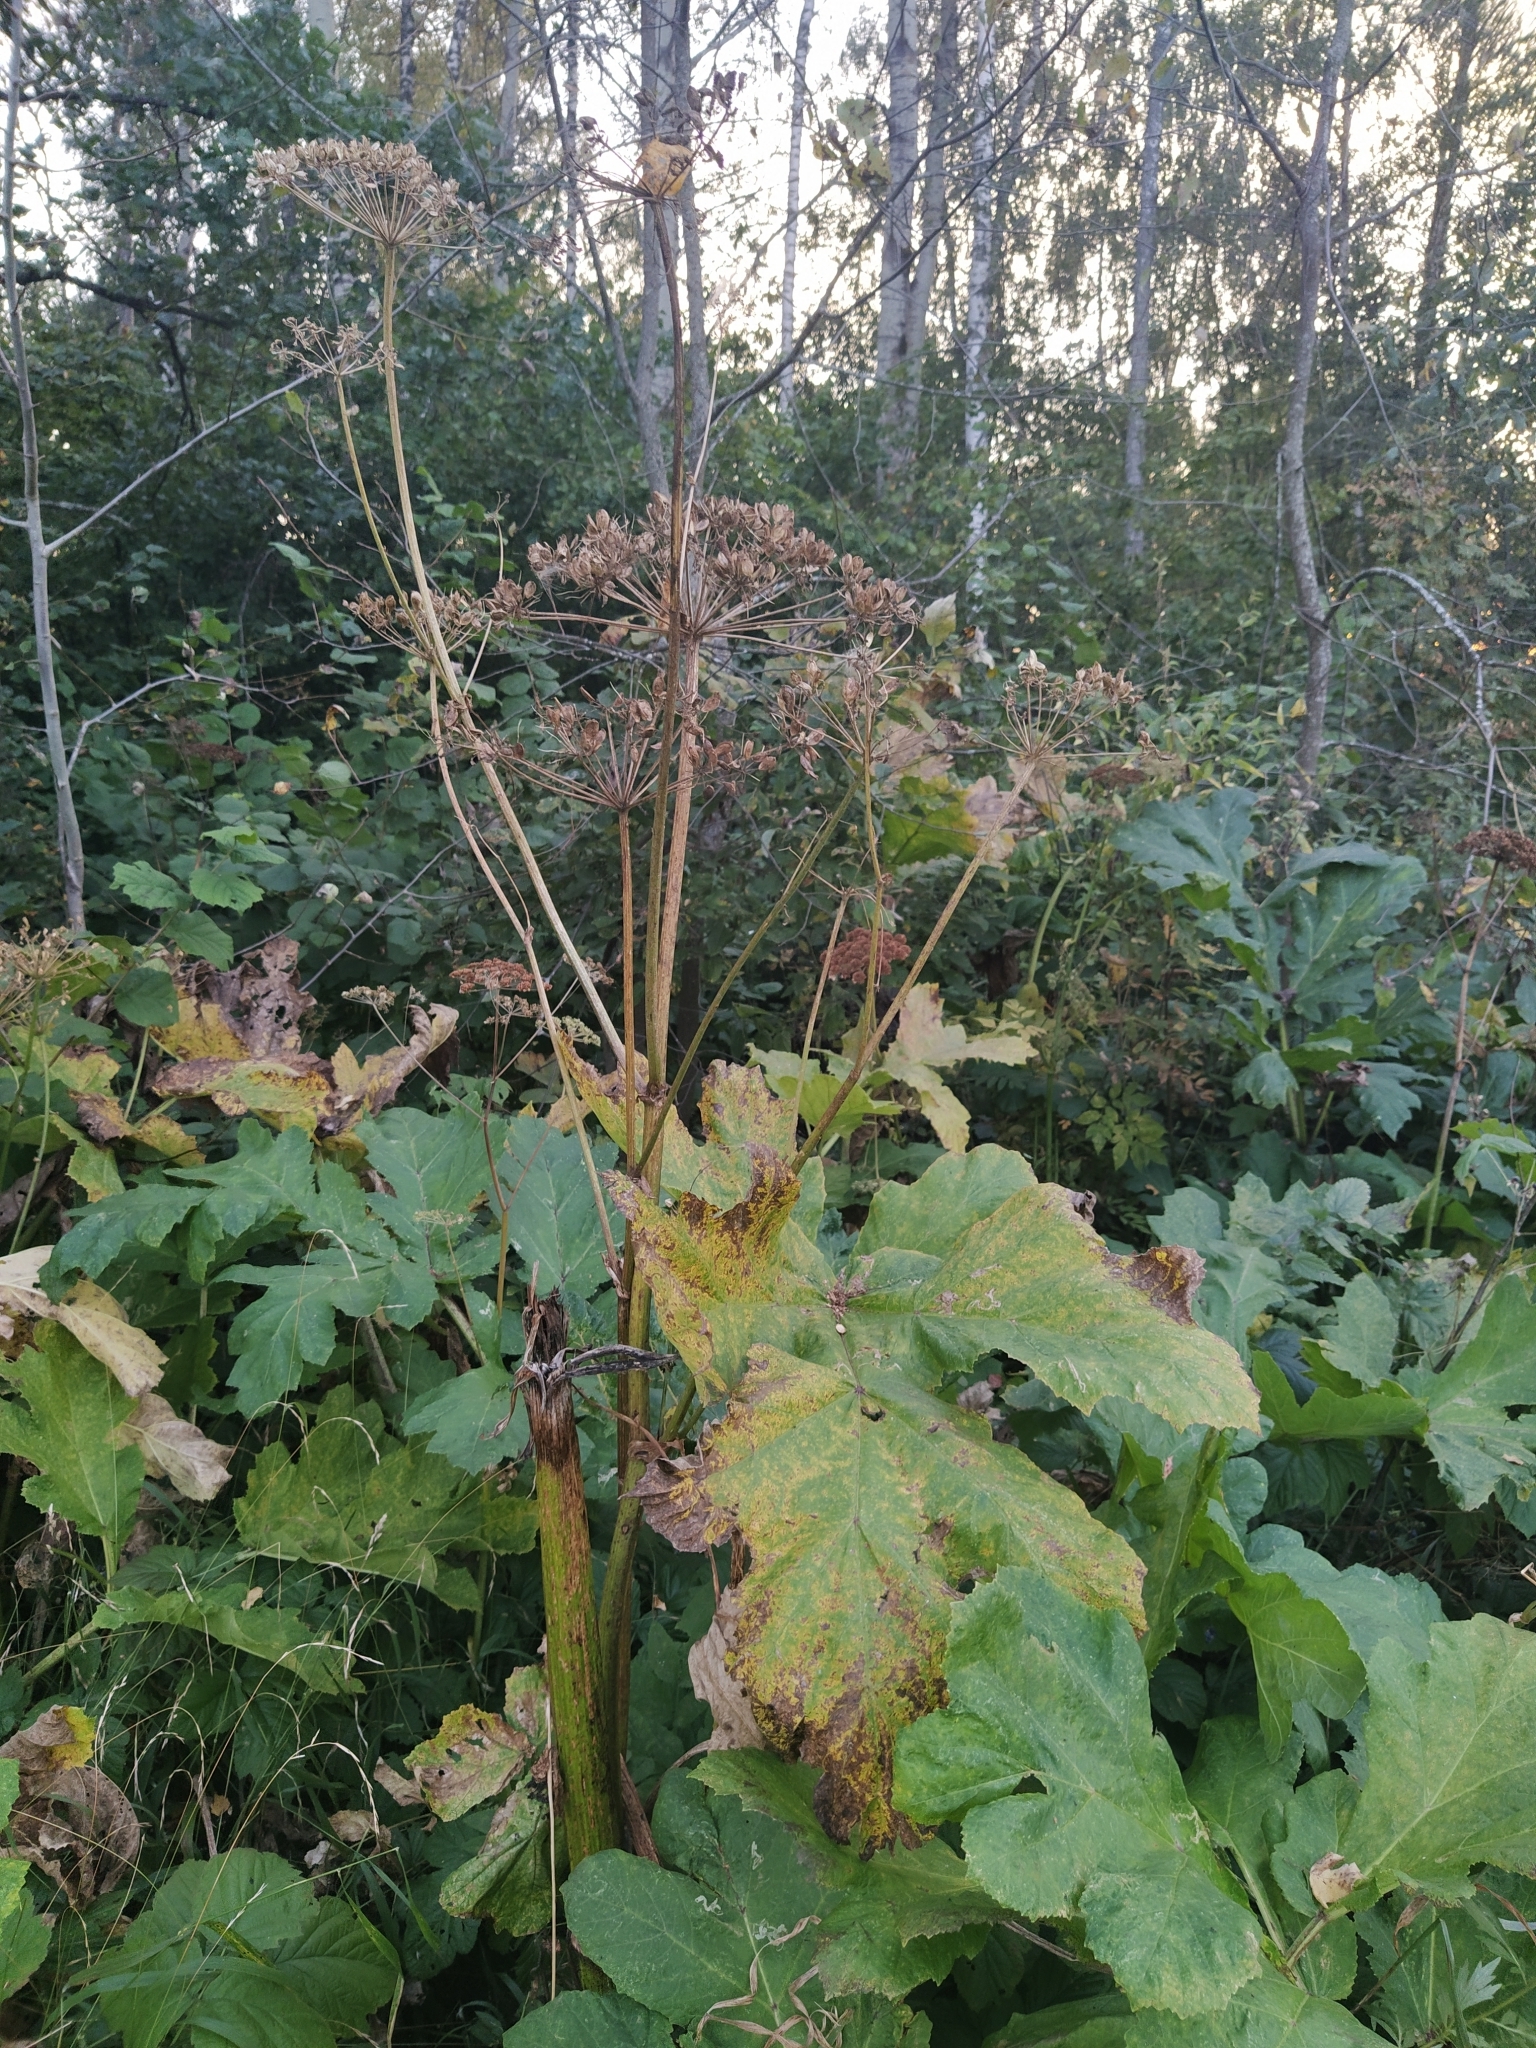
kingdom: Plantae
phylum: Tracheophyta
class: Magnoliopsida
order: Apiales
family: Apiaceae
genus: Heracleum
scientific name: Heracleum sosnowskyi
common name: Sosnowsky's hogweed
